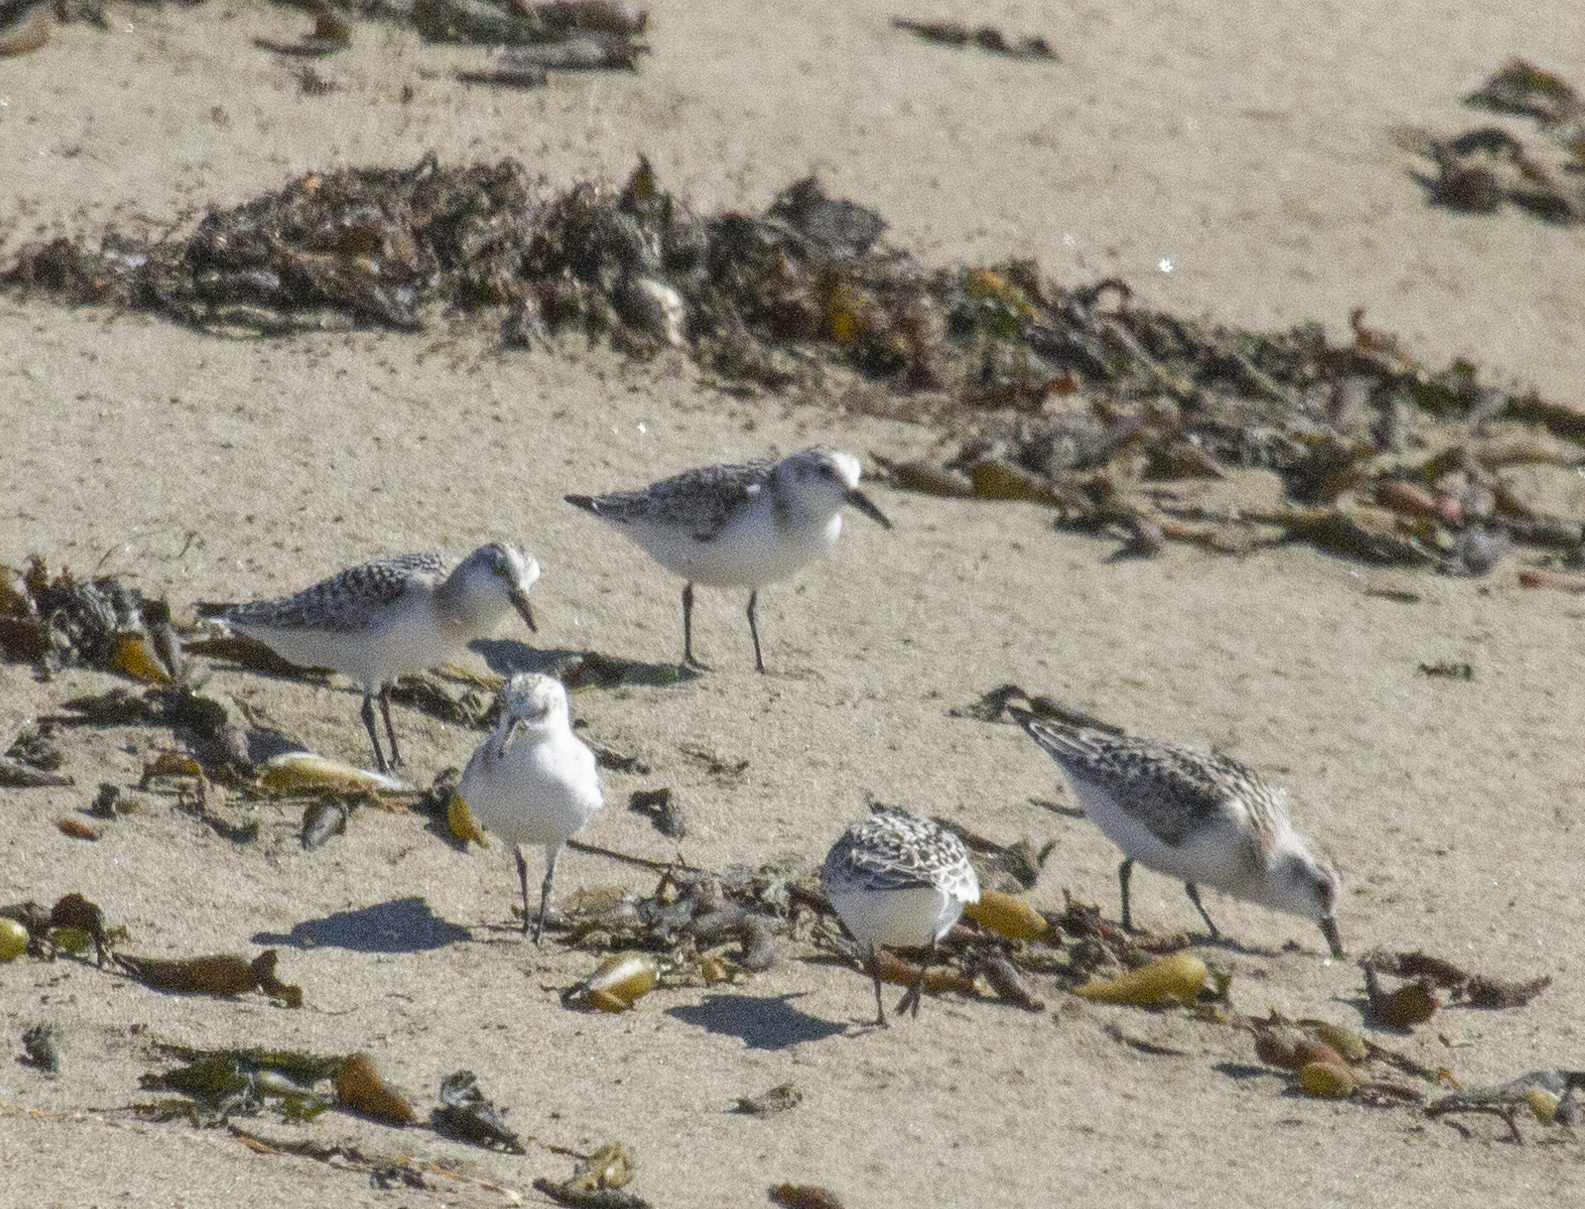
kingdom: Animalia
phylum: Chordata
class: Aves
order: Charadriiformes
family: Scolopacidae
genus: Calidris
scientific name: Calidris alba
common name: Sanderling
